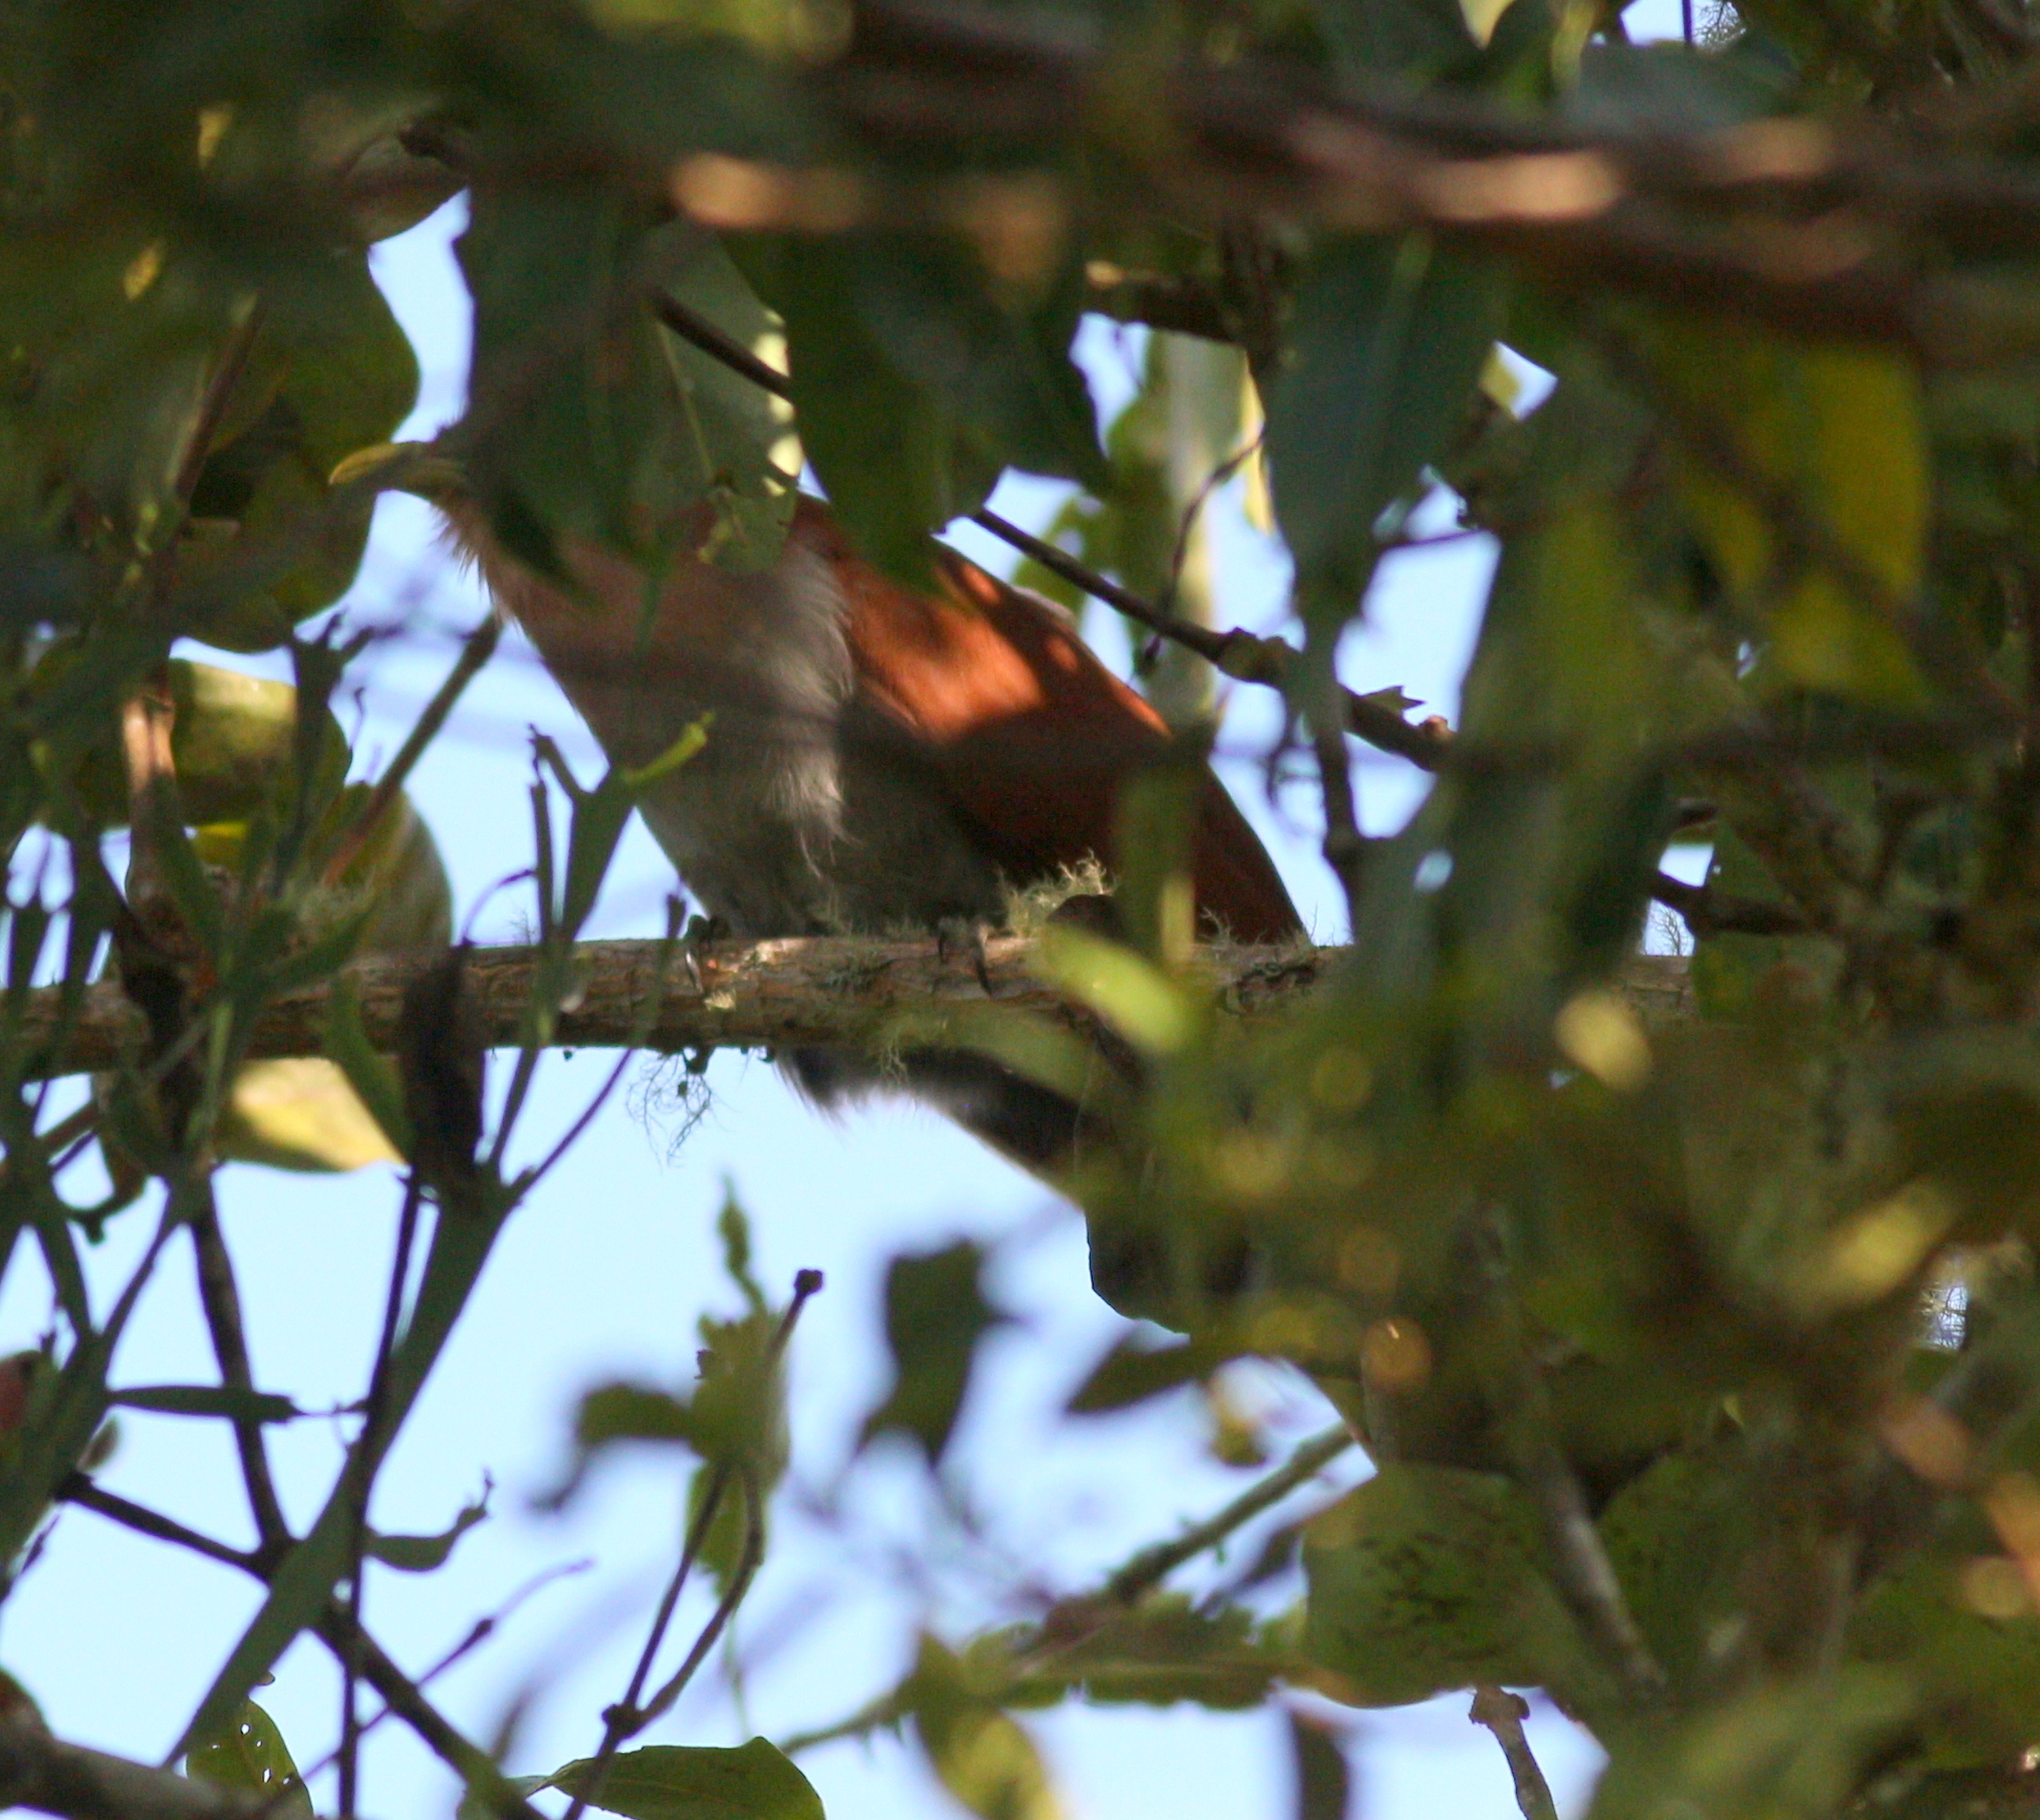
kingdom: Animalia
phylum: Chordata
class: Aves
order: Cuculiformes
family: Cuculidae
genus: Piaya
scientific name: Piaya cayana
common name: Squirrel cuckoo
